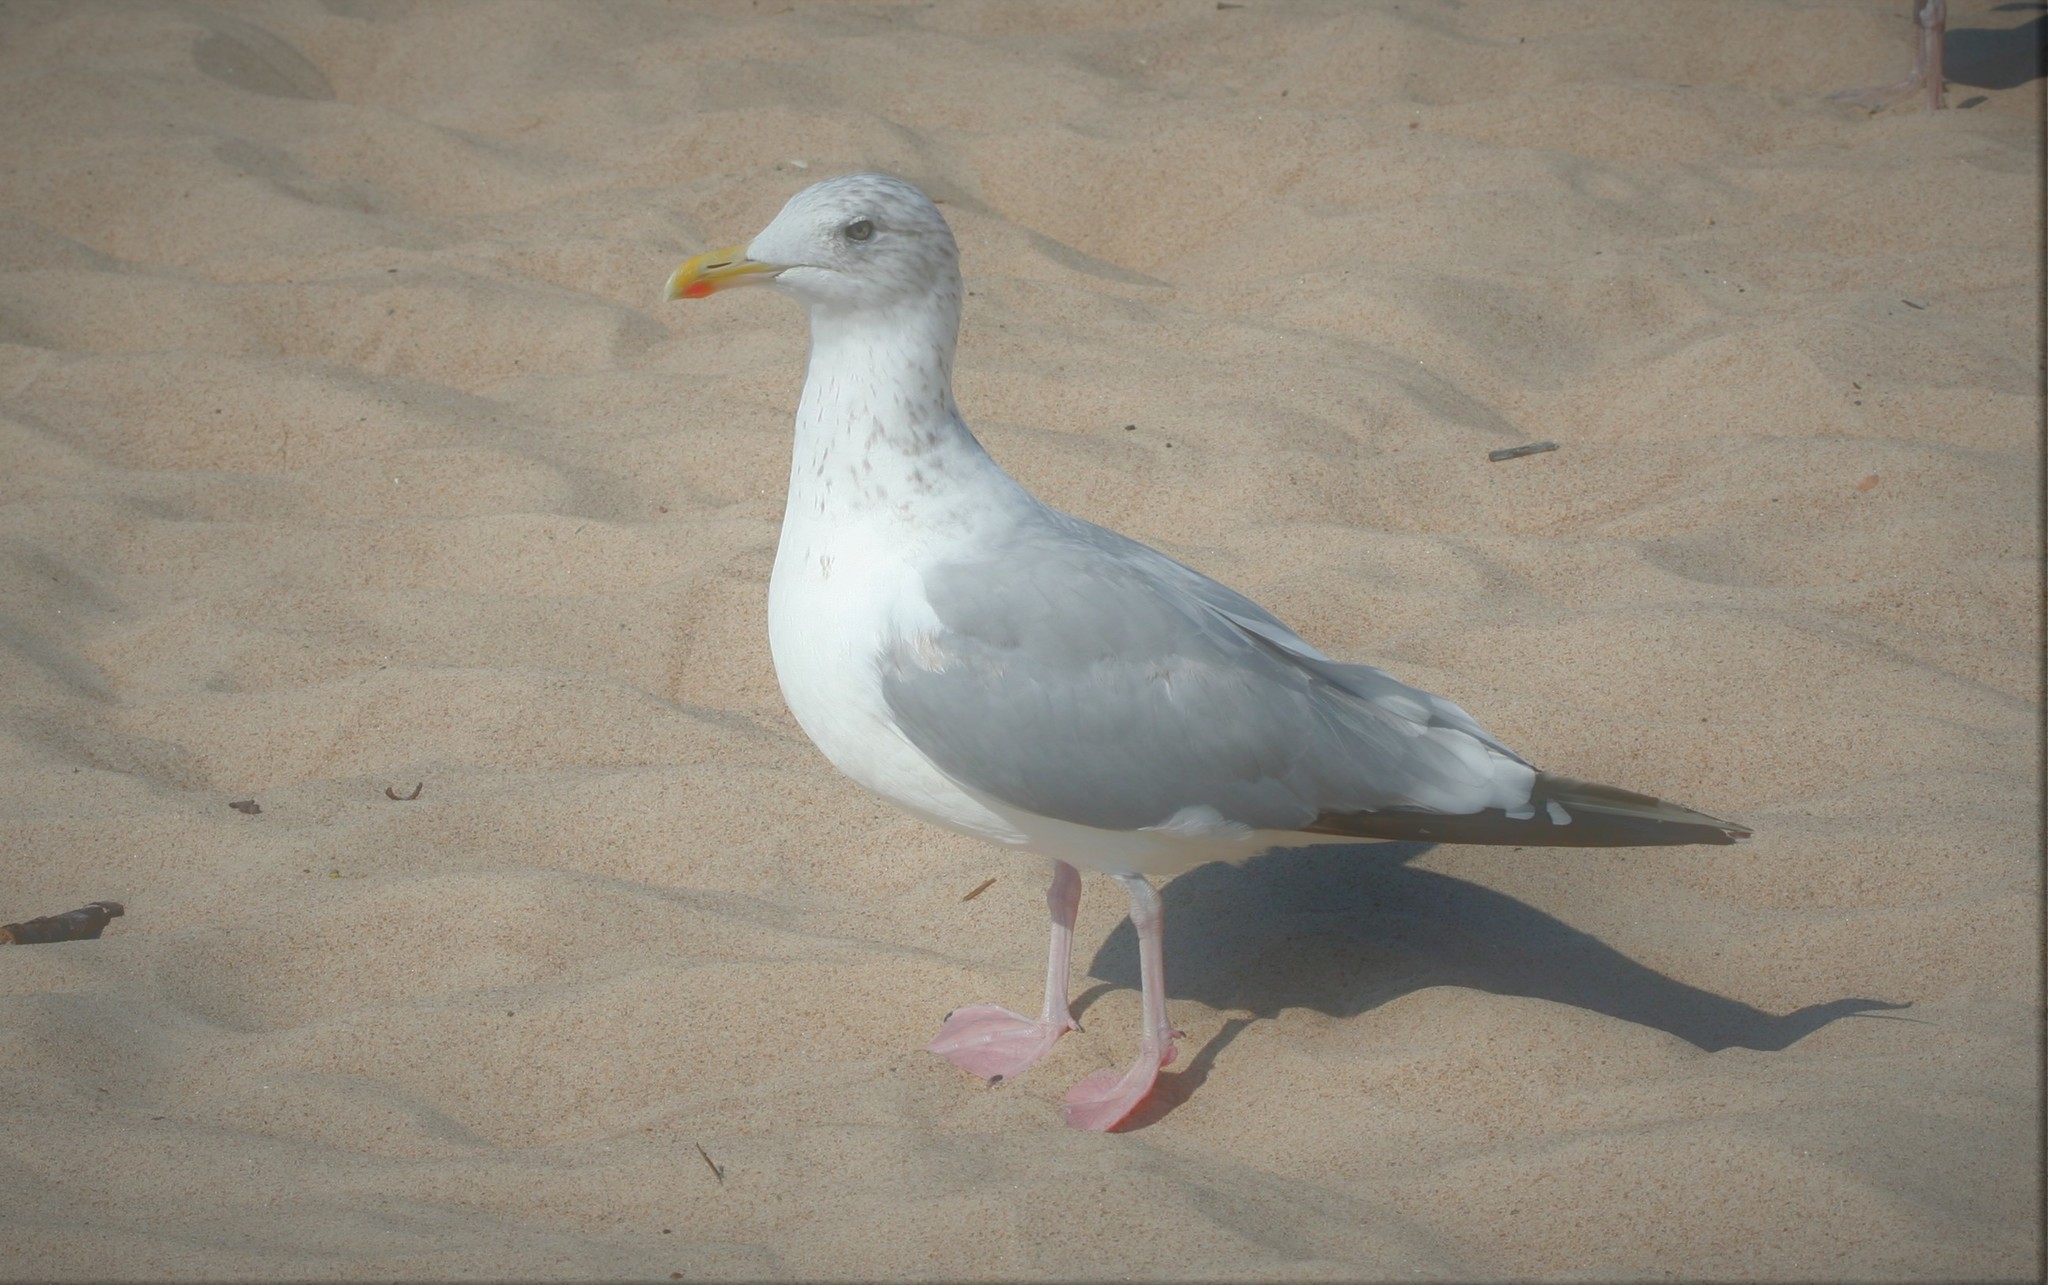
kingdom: Animalia
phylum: Chordata
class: Aves
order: Charadriiformes
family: Laridae
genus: Larus
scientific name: Larus argentatus
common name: Herring gull
